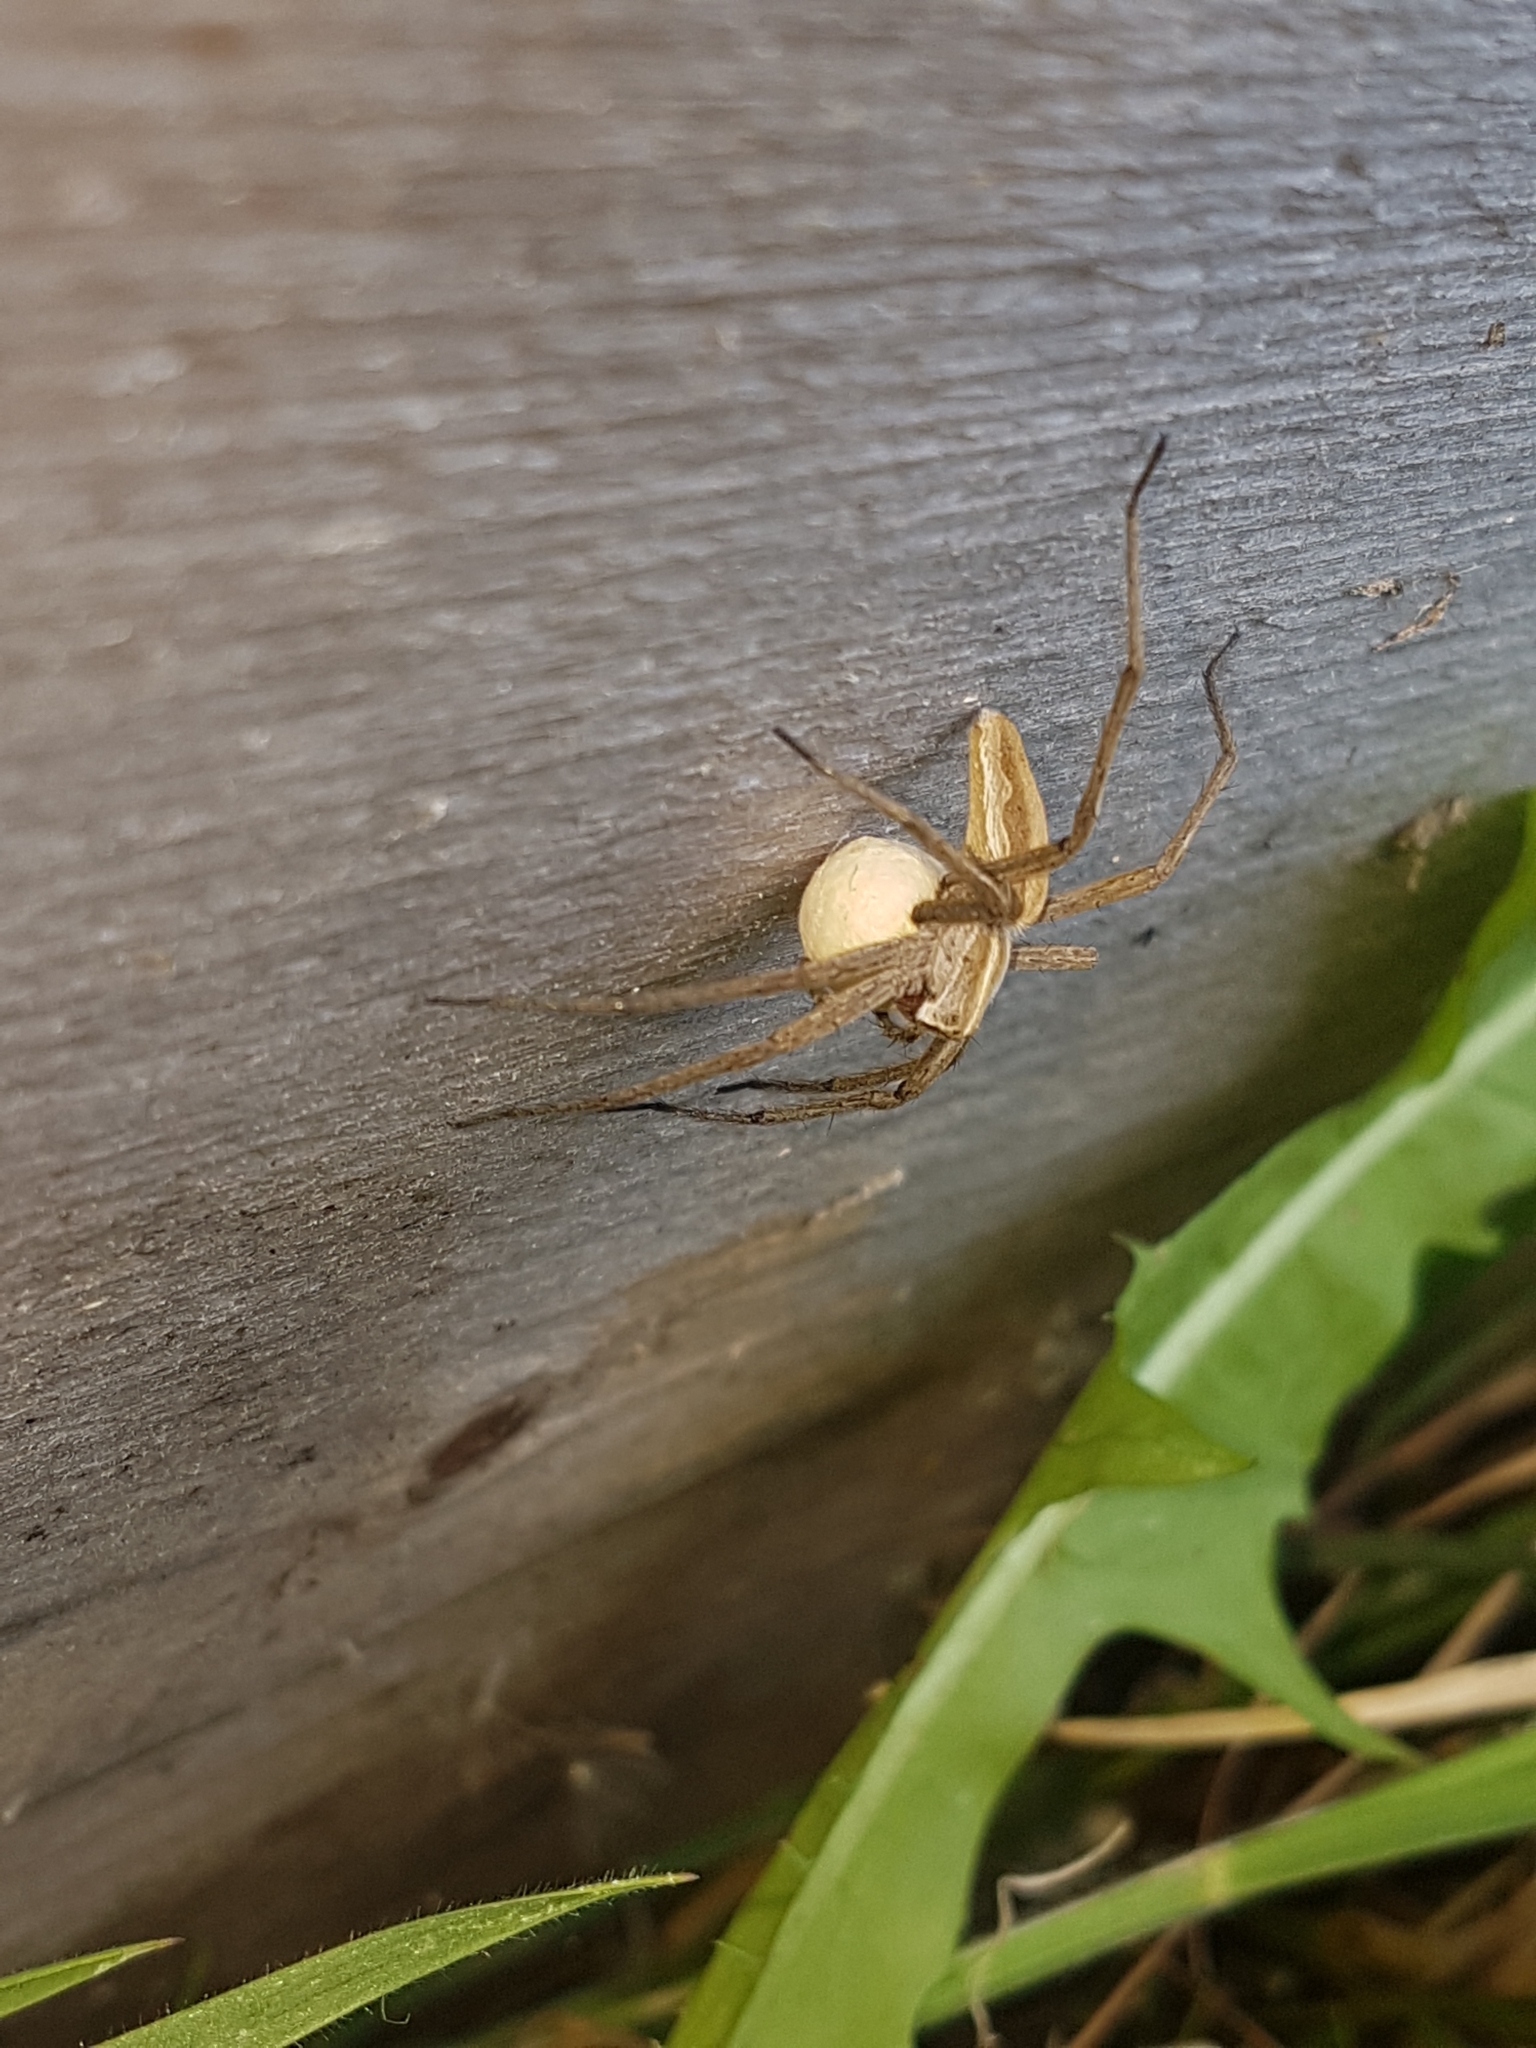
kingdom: Animalia
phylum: Arthropoda
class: Arachnida
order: Araneae
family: Pisauridae
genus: Pisaura
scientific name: Pisaura mirabilis
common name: Tent spider
